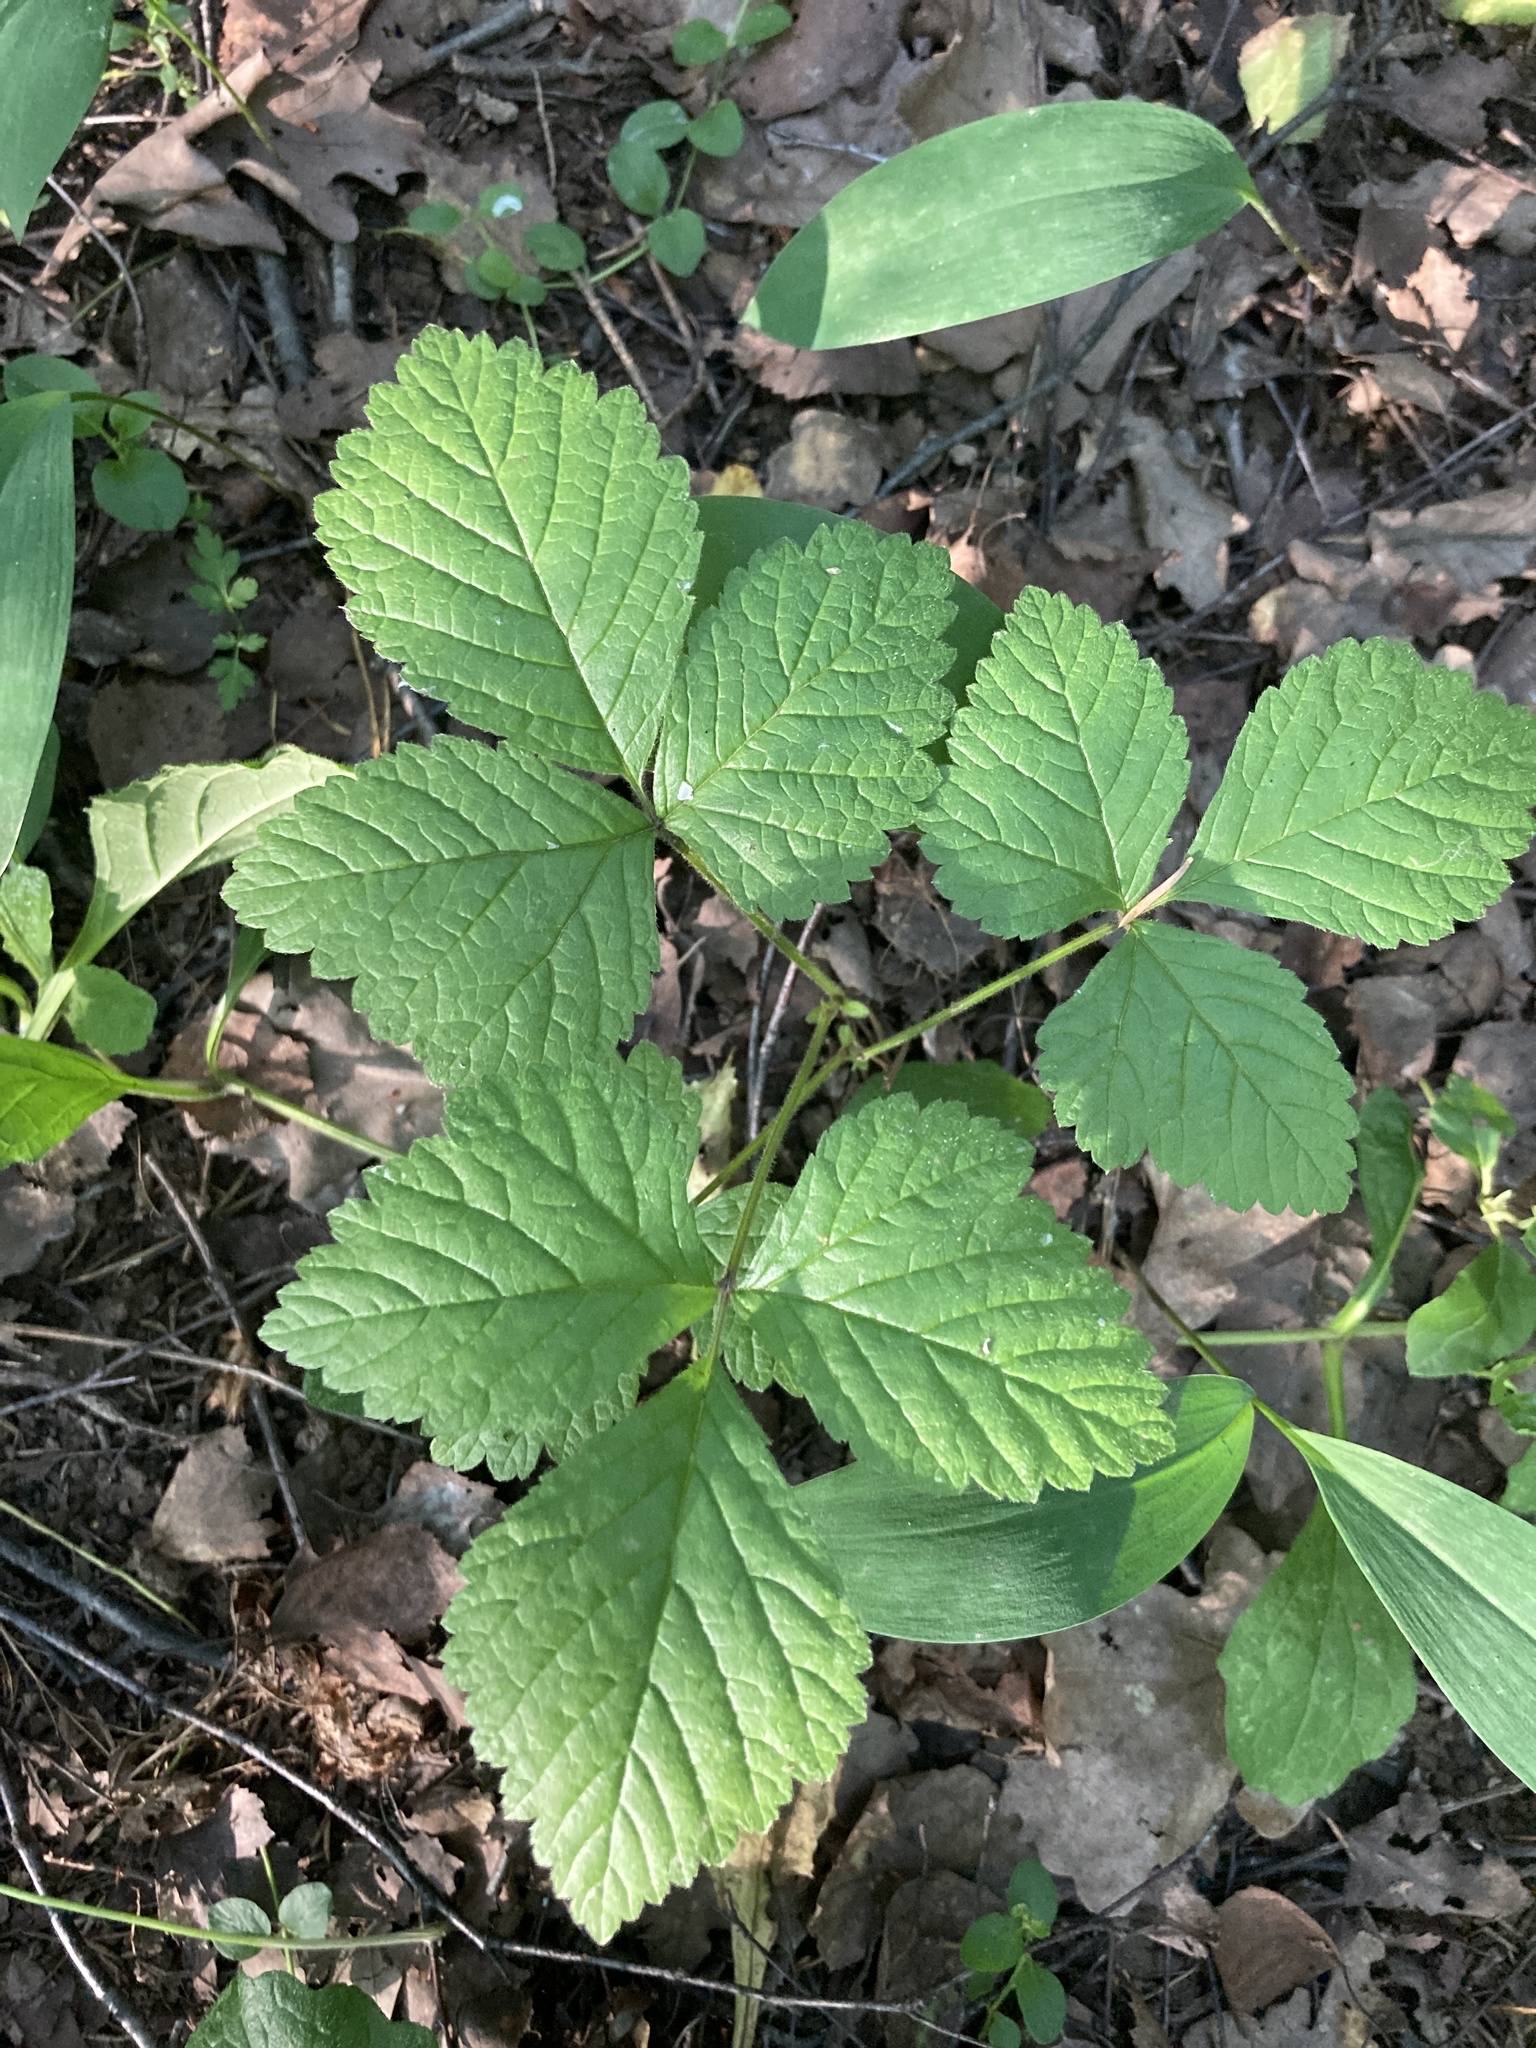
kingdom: Plantae
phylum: Tracheophyta
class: Magnoliopsida
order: Rosales
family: Rosaceae
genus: Rubus
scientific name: Rubus saxatilis
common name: Stone bramble
